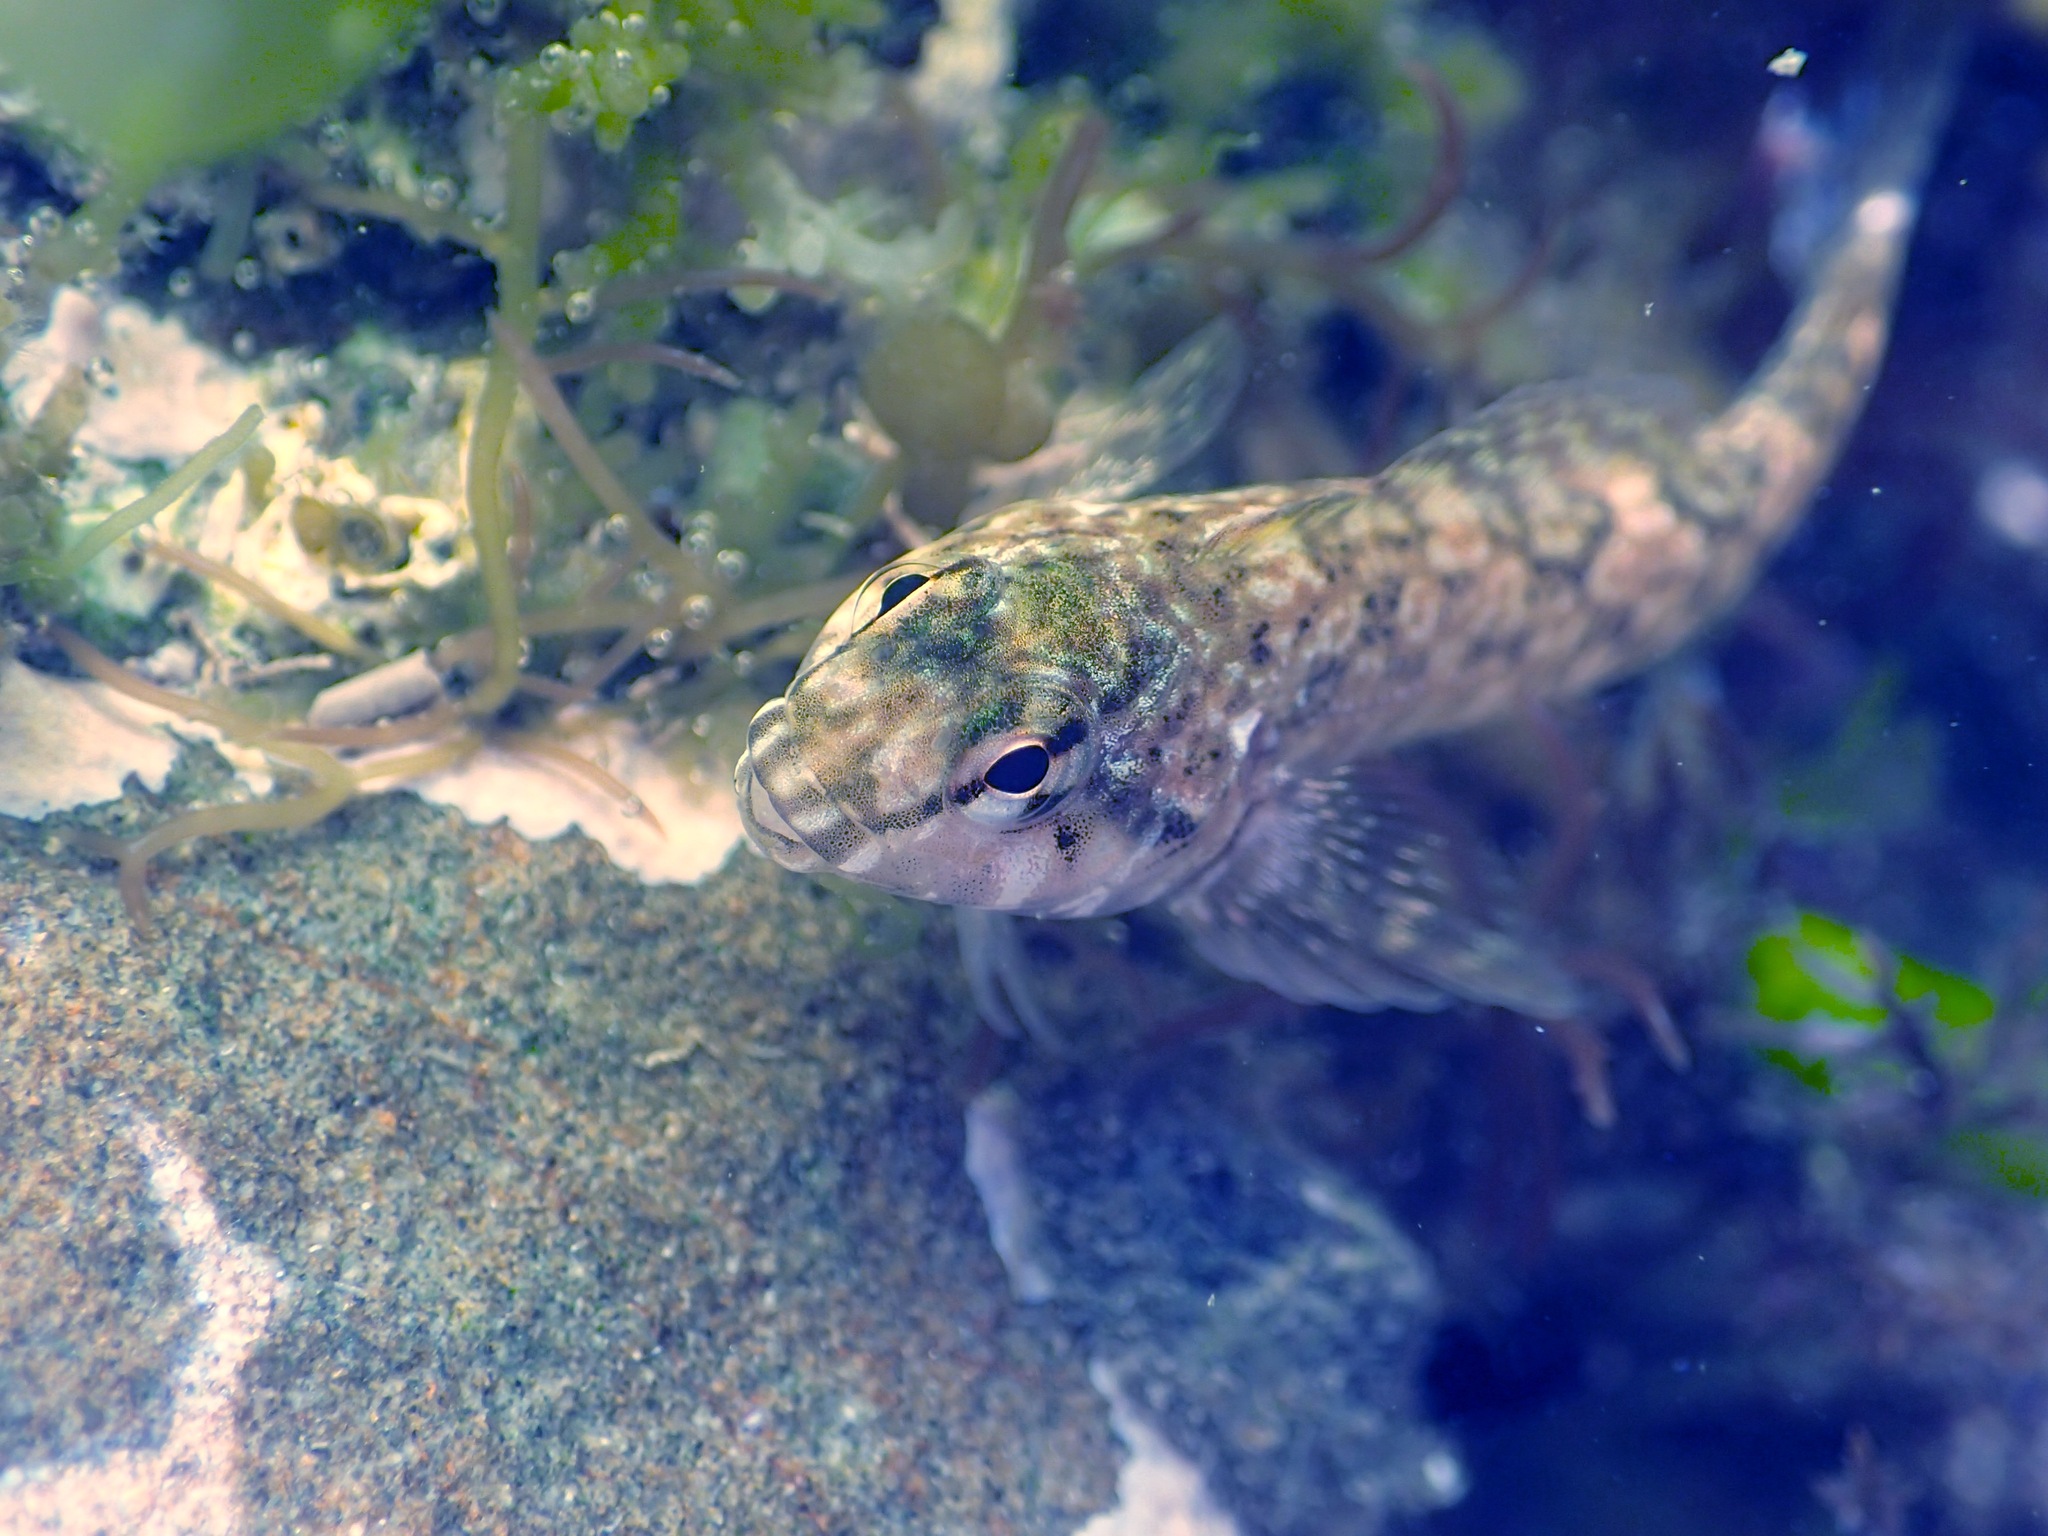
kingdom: Animalia
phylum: Chordata
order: Perciformes
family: Tripterygiidae
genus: Bellapiscis
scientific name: Bellapiscis lesleyae
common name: Mottled twister
